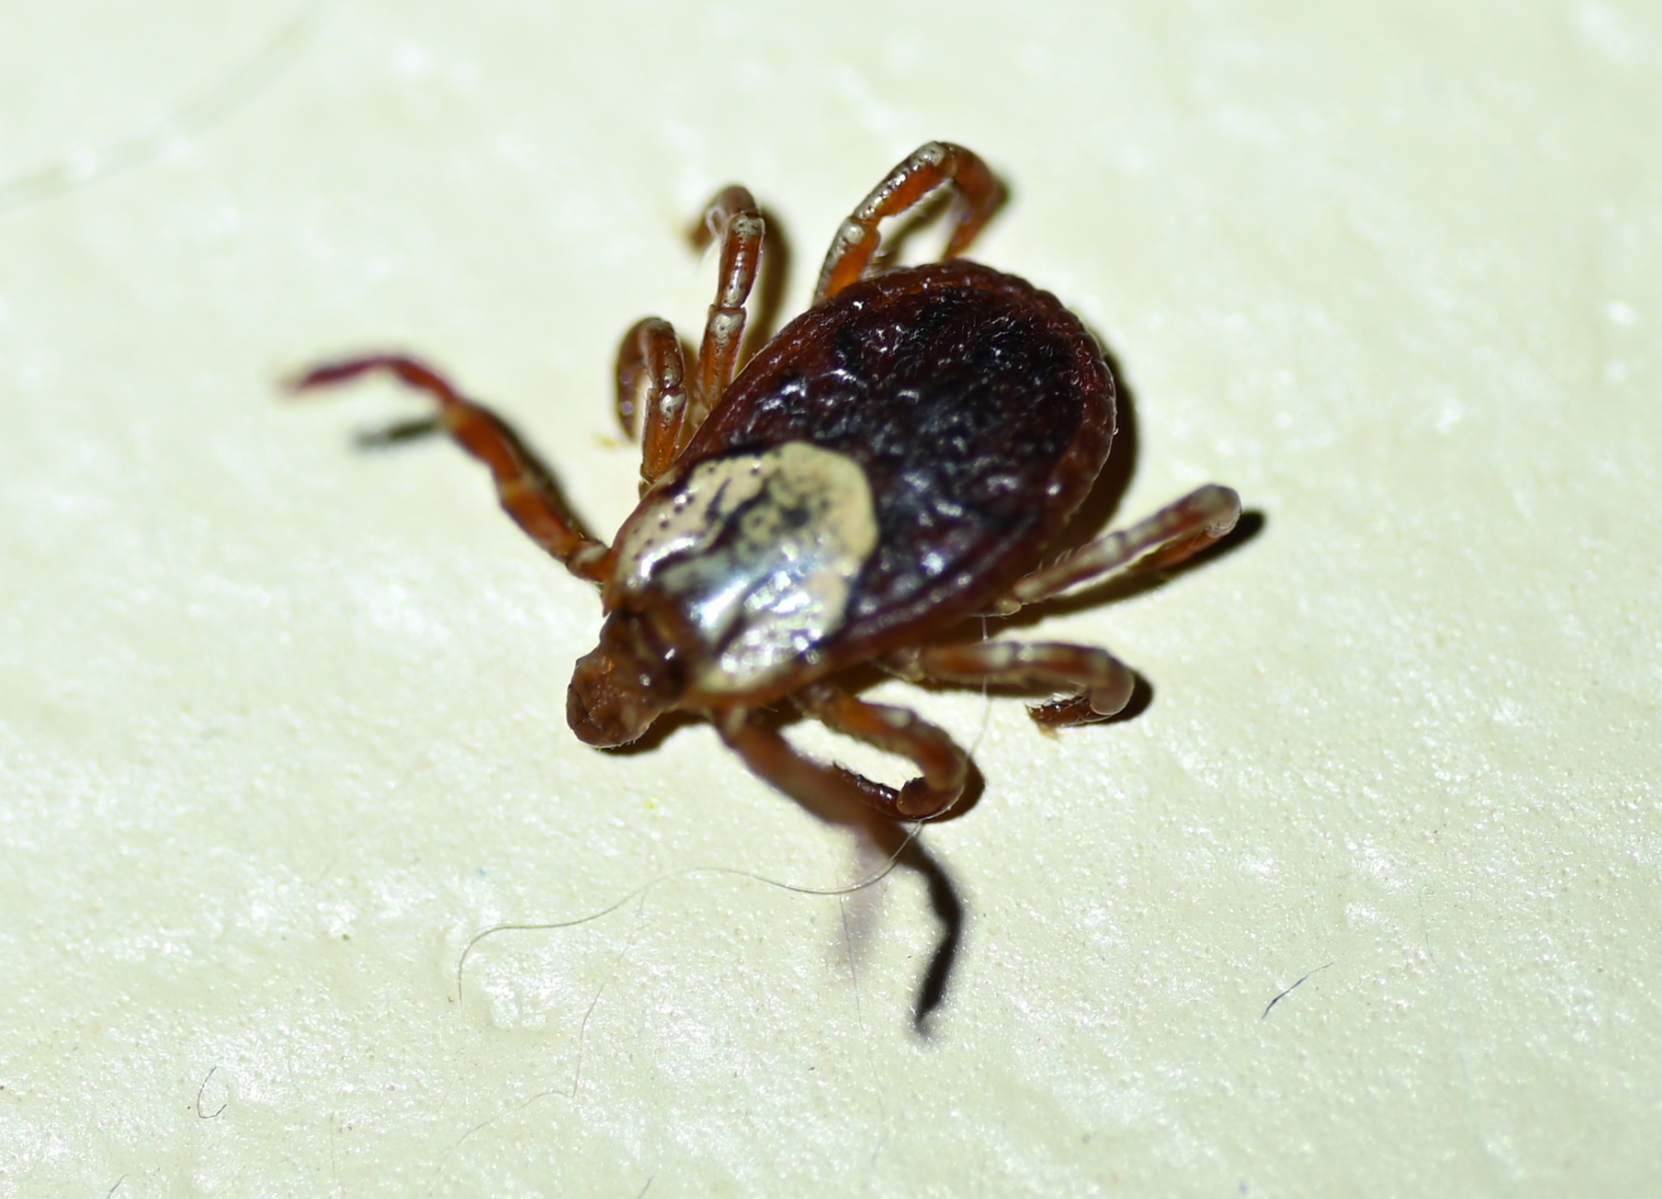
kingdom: Animalia
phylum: Arthropoda
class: Arachnida
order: Ixodida
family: Ixodidae
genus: Dermacentor
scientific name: Dermacentor variabilis
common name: American dog tick
